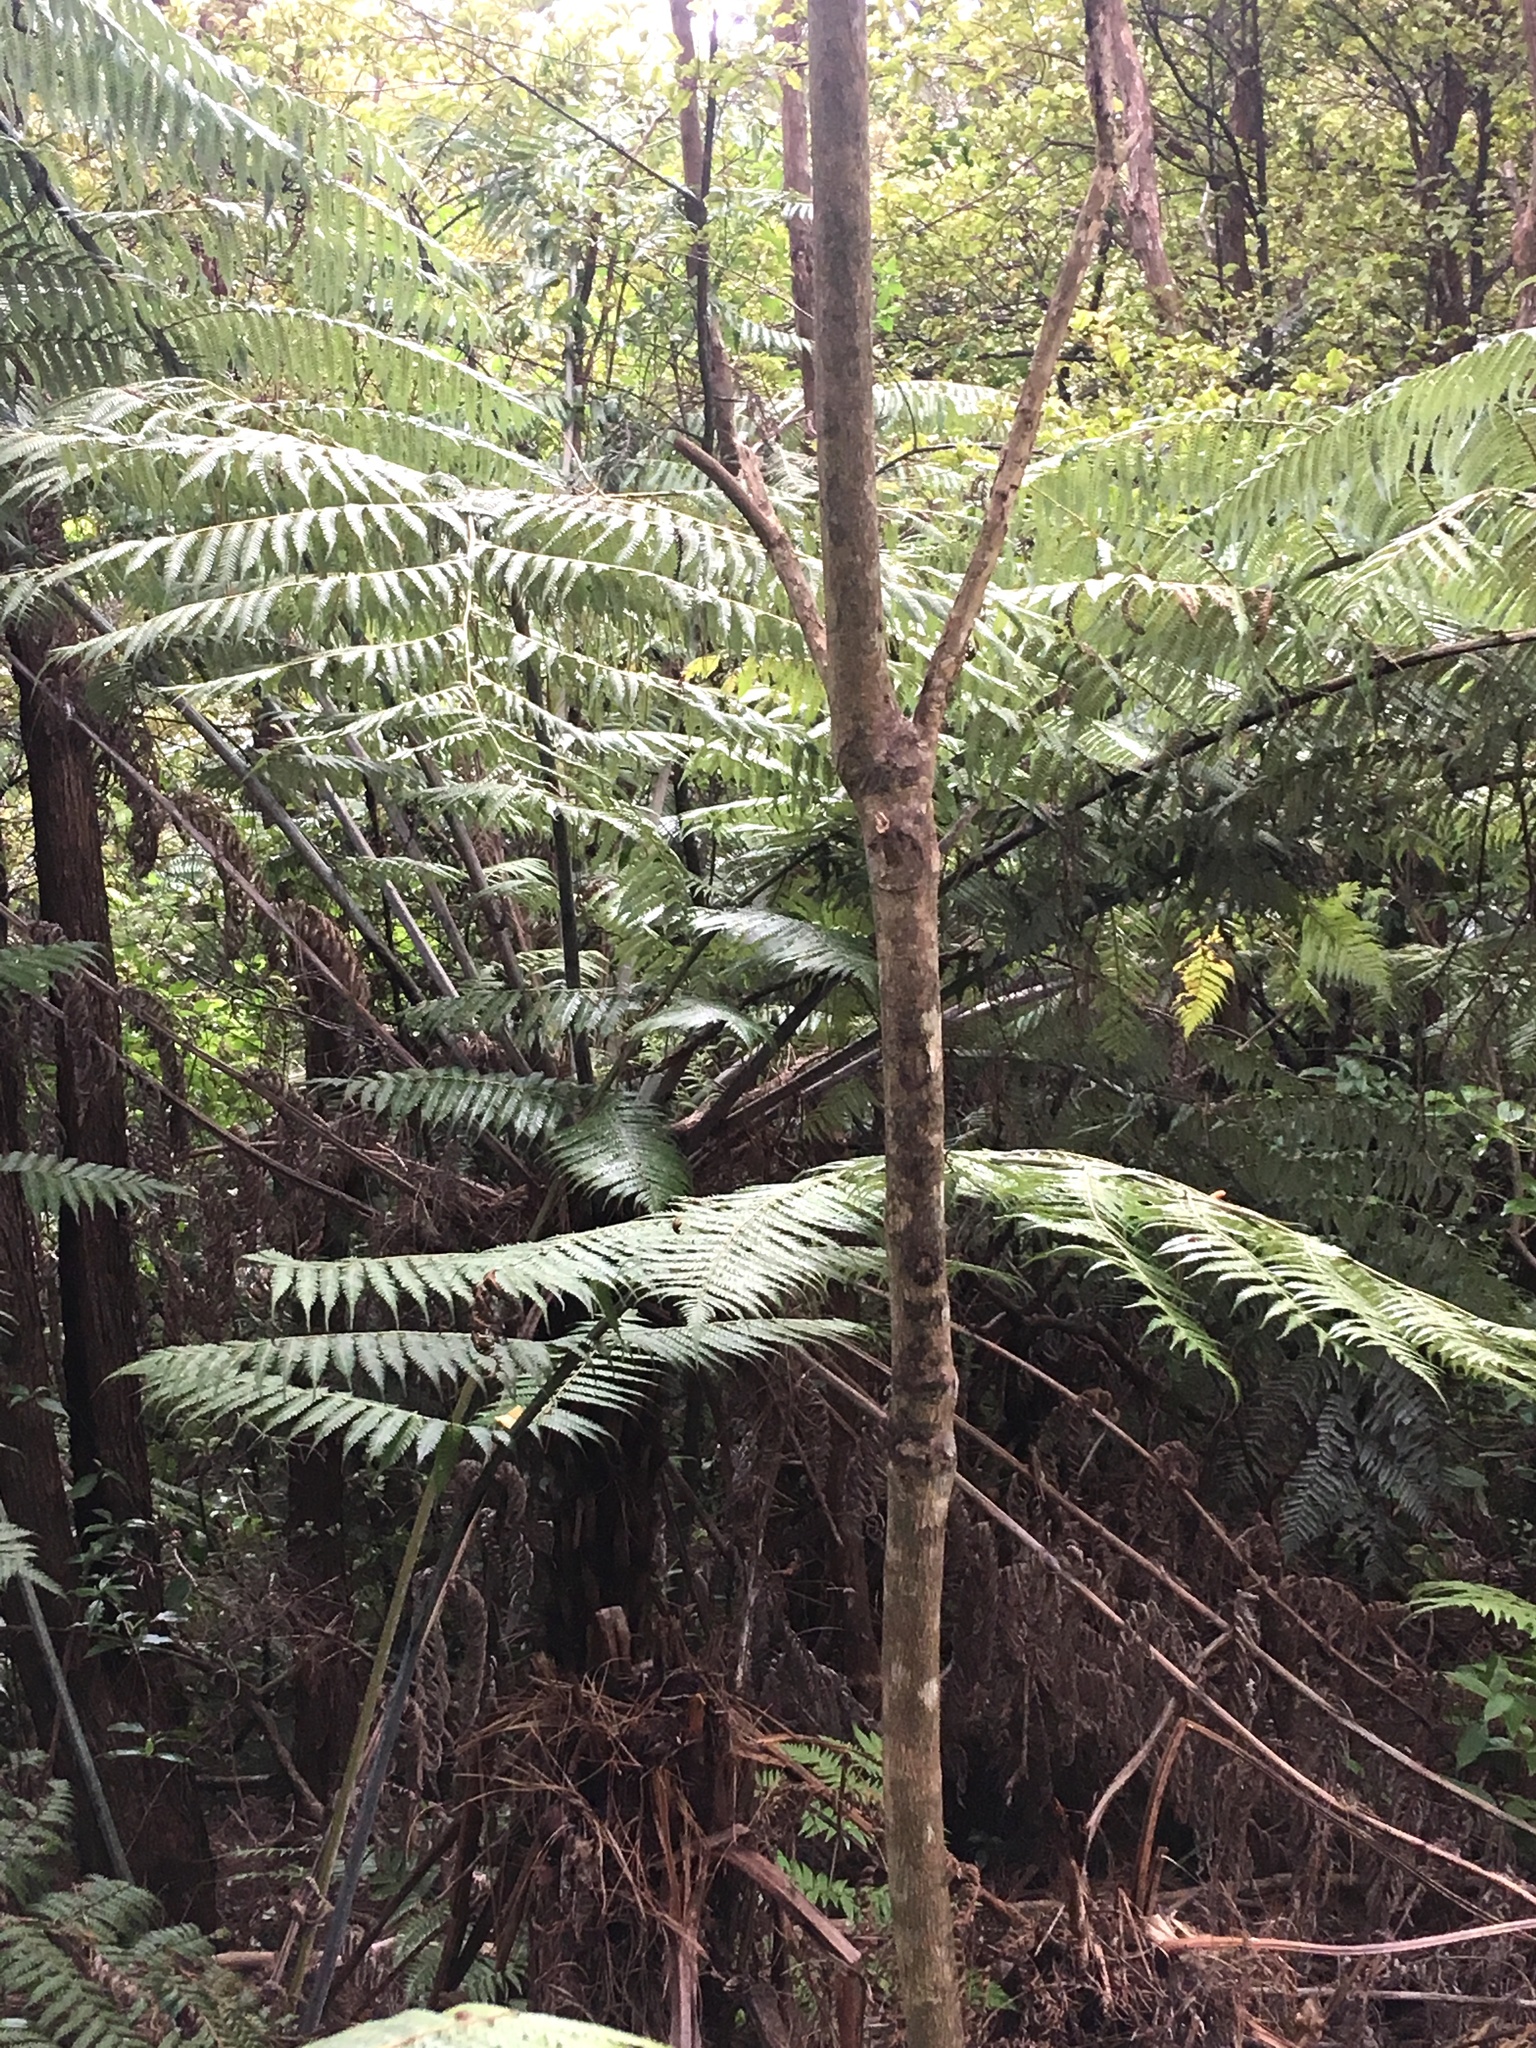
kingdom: Plantae
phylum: Tracheophyta
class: Polypodiopsida
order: Cyatheales
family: Cyatheaceae
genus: Alsophila
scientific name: Alsophila dealbata
